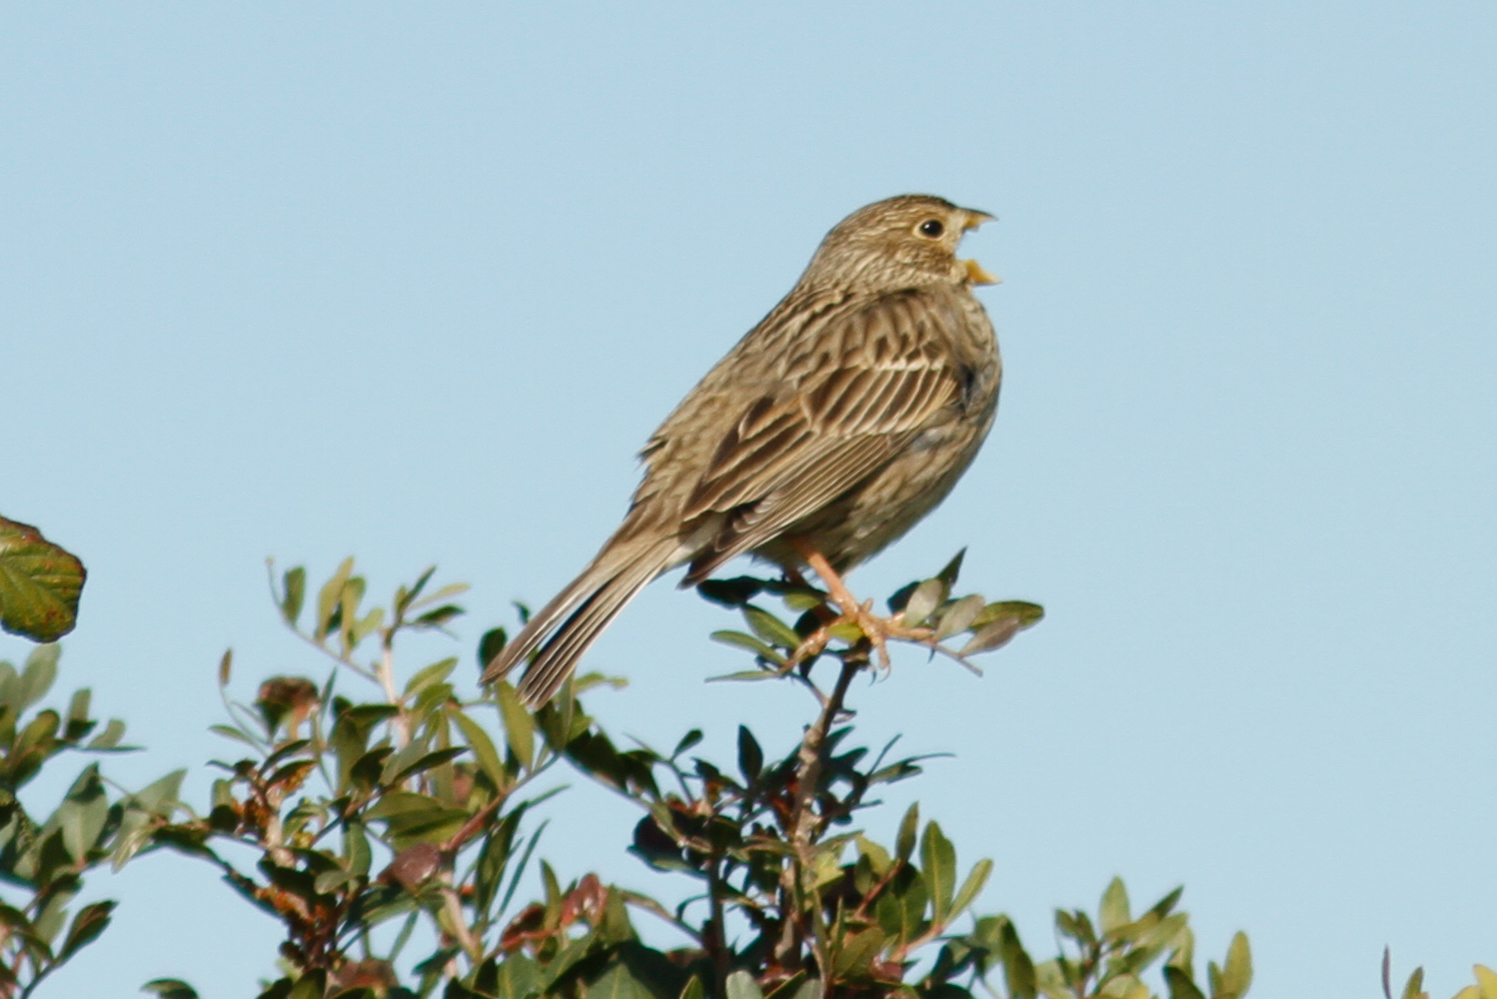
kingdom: Animalia
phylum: Chordata
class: Aves
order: Passeriformes
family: Emberizidae
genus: Emberiza
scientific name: Emberiza calandra
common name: Corn bunting
